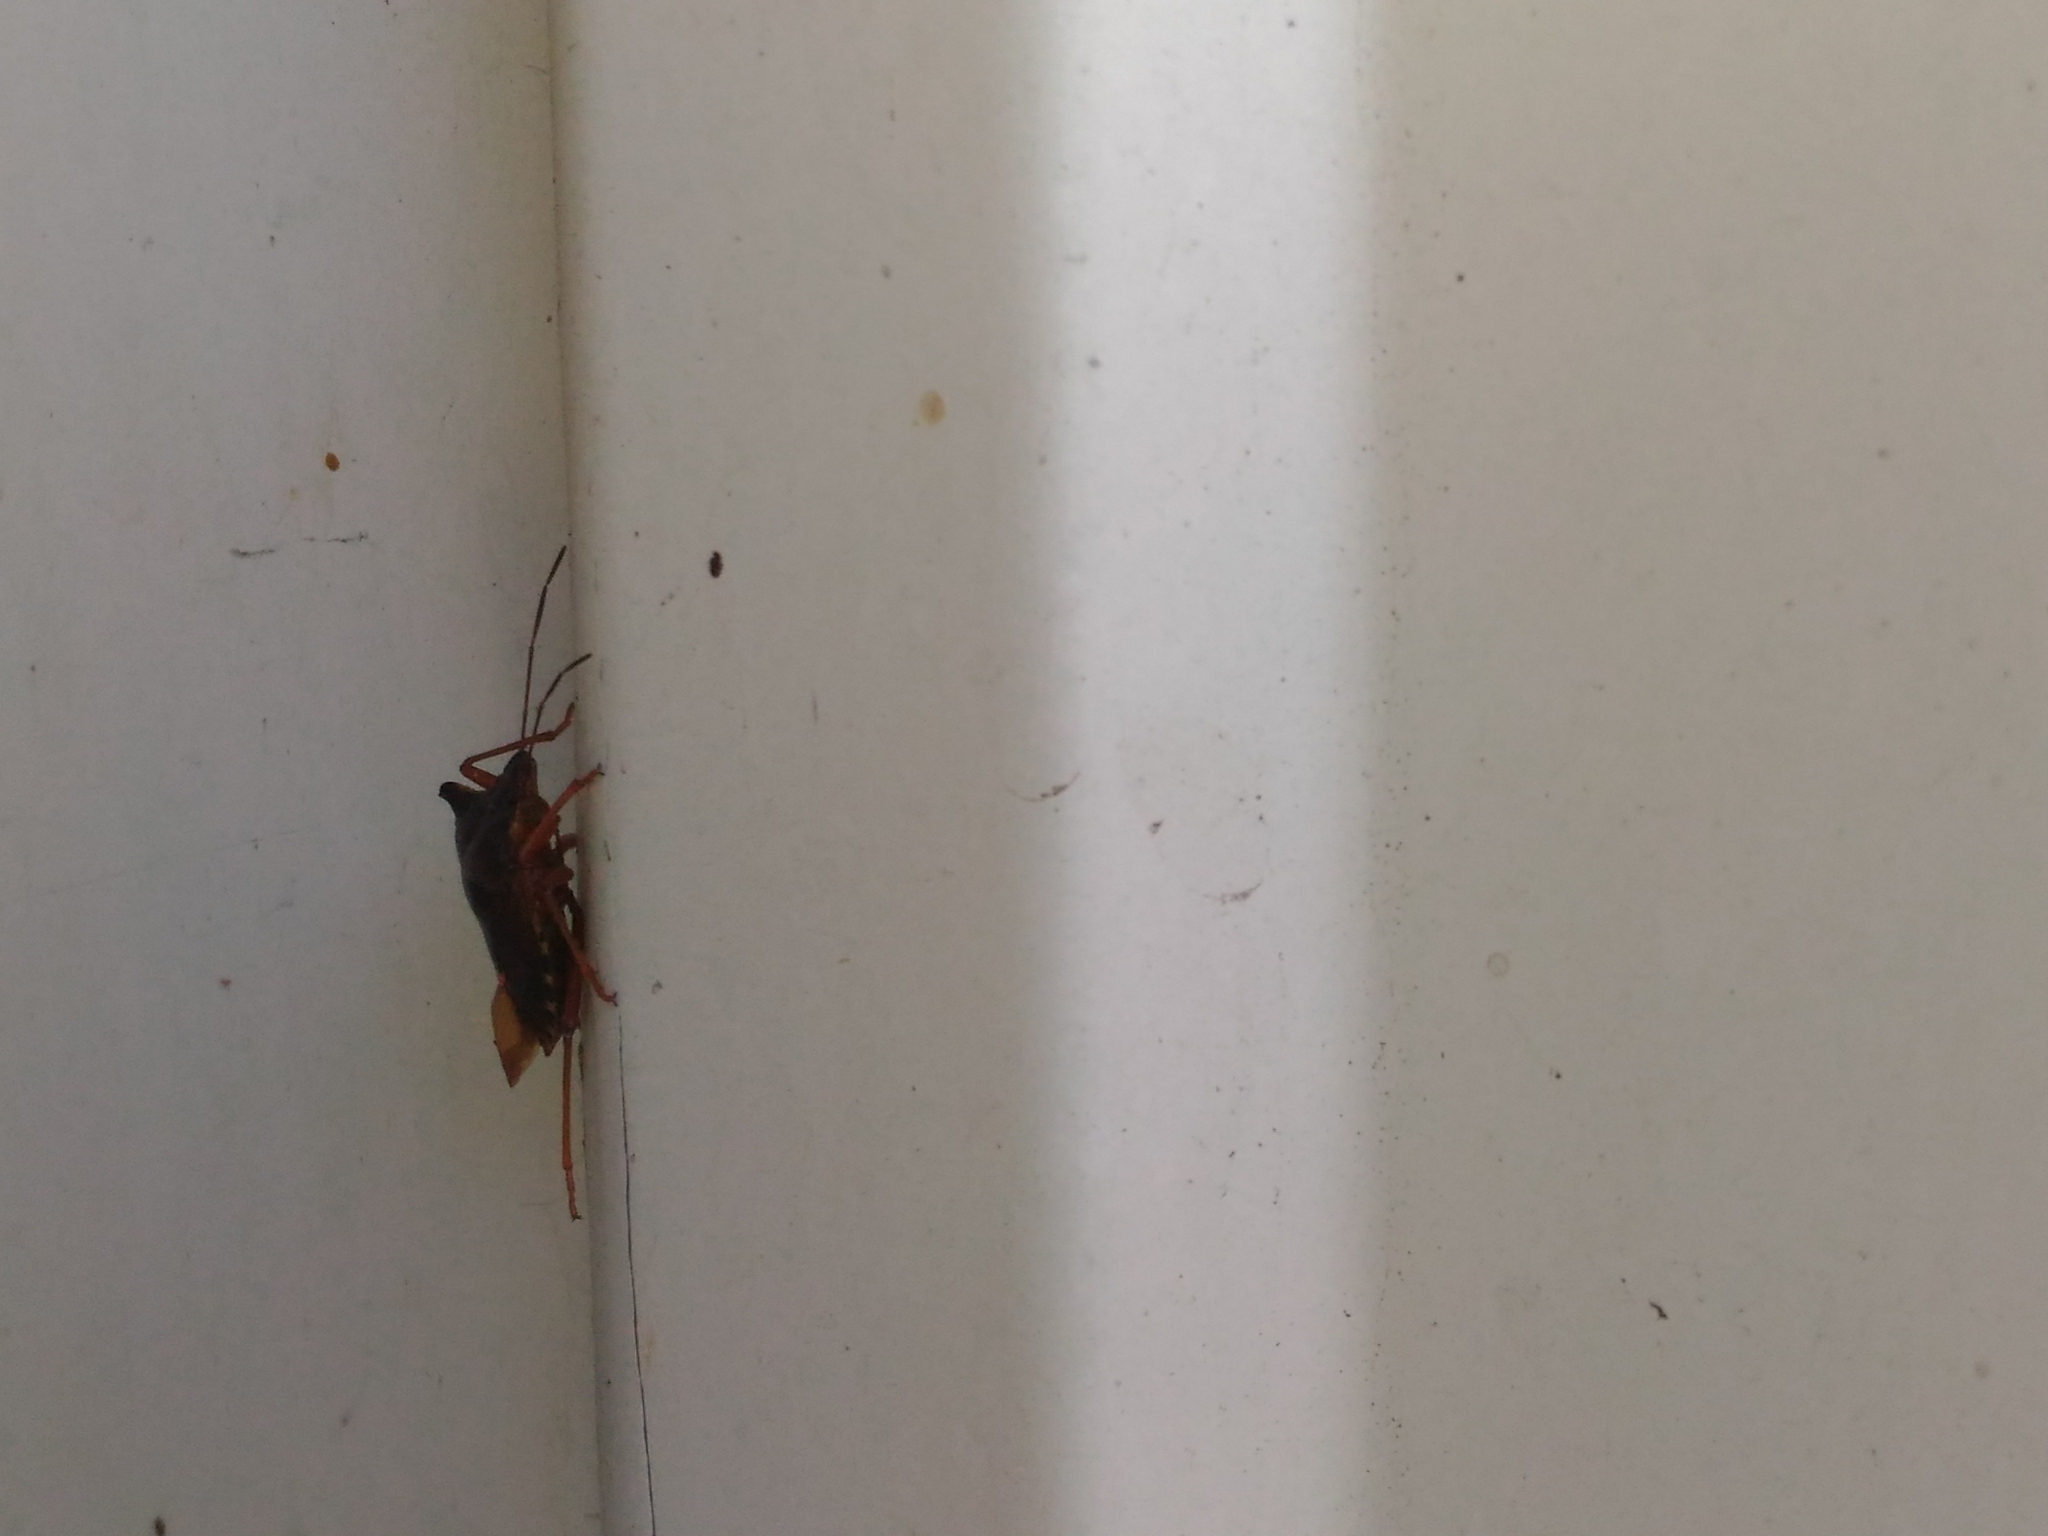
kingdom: Animalia
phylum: Arthropoda
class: Insecta
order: Hemiptera
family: Pentatomidae
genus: Pentatoma
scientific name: Pentatoma rufipes
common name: Forest bug
